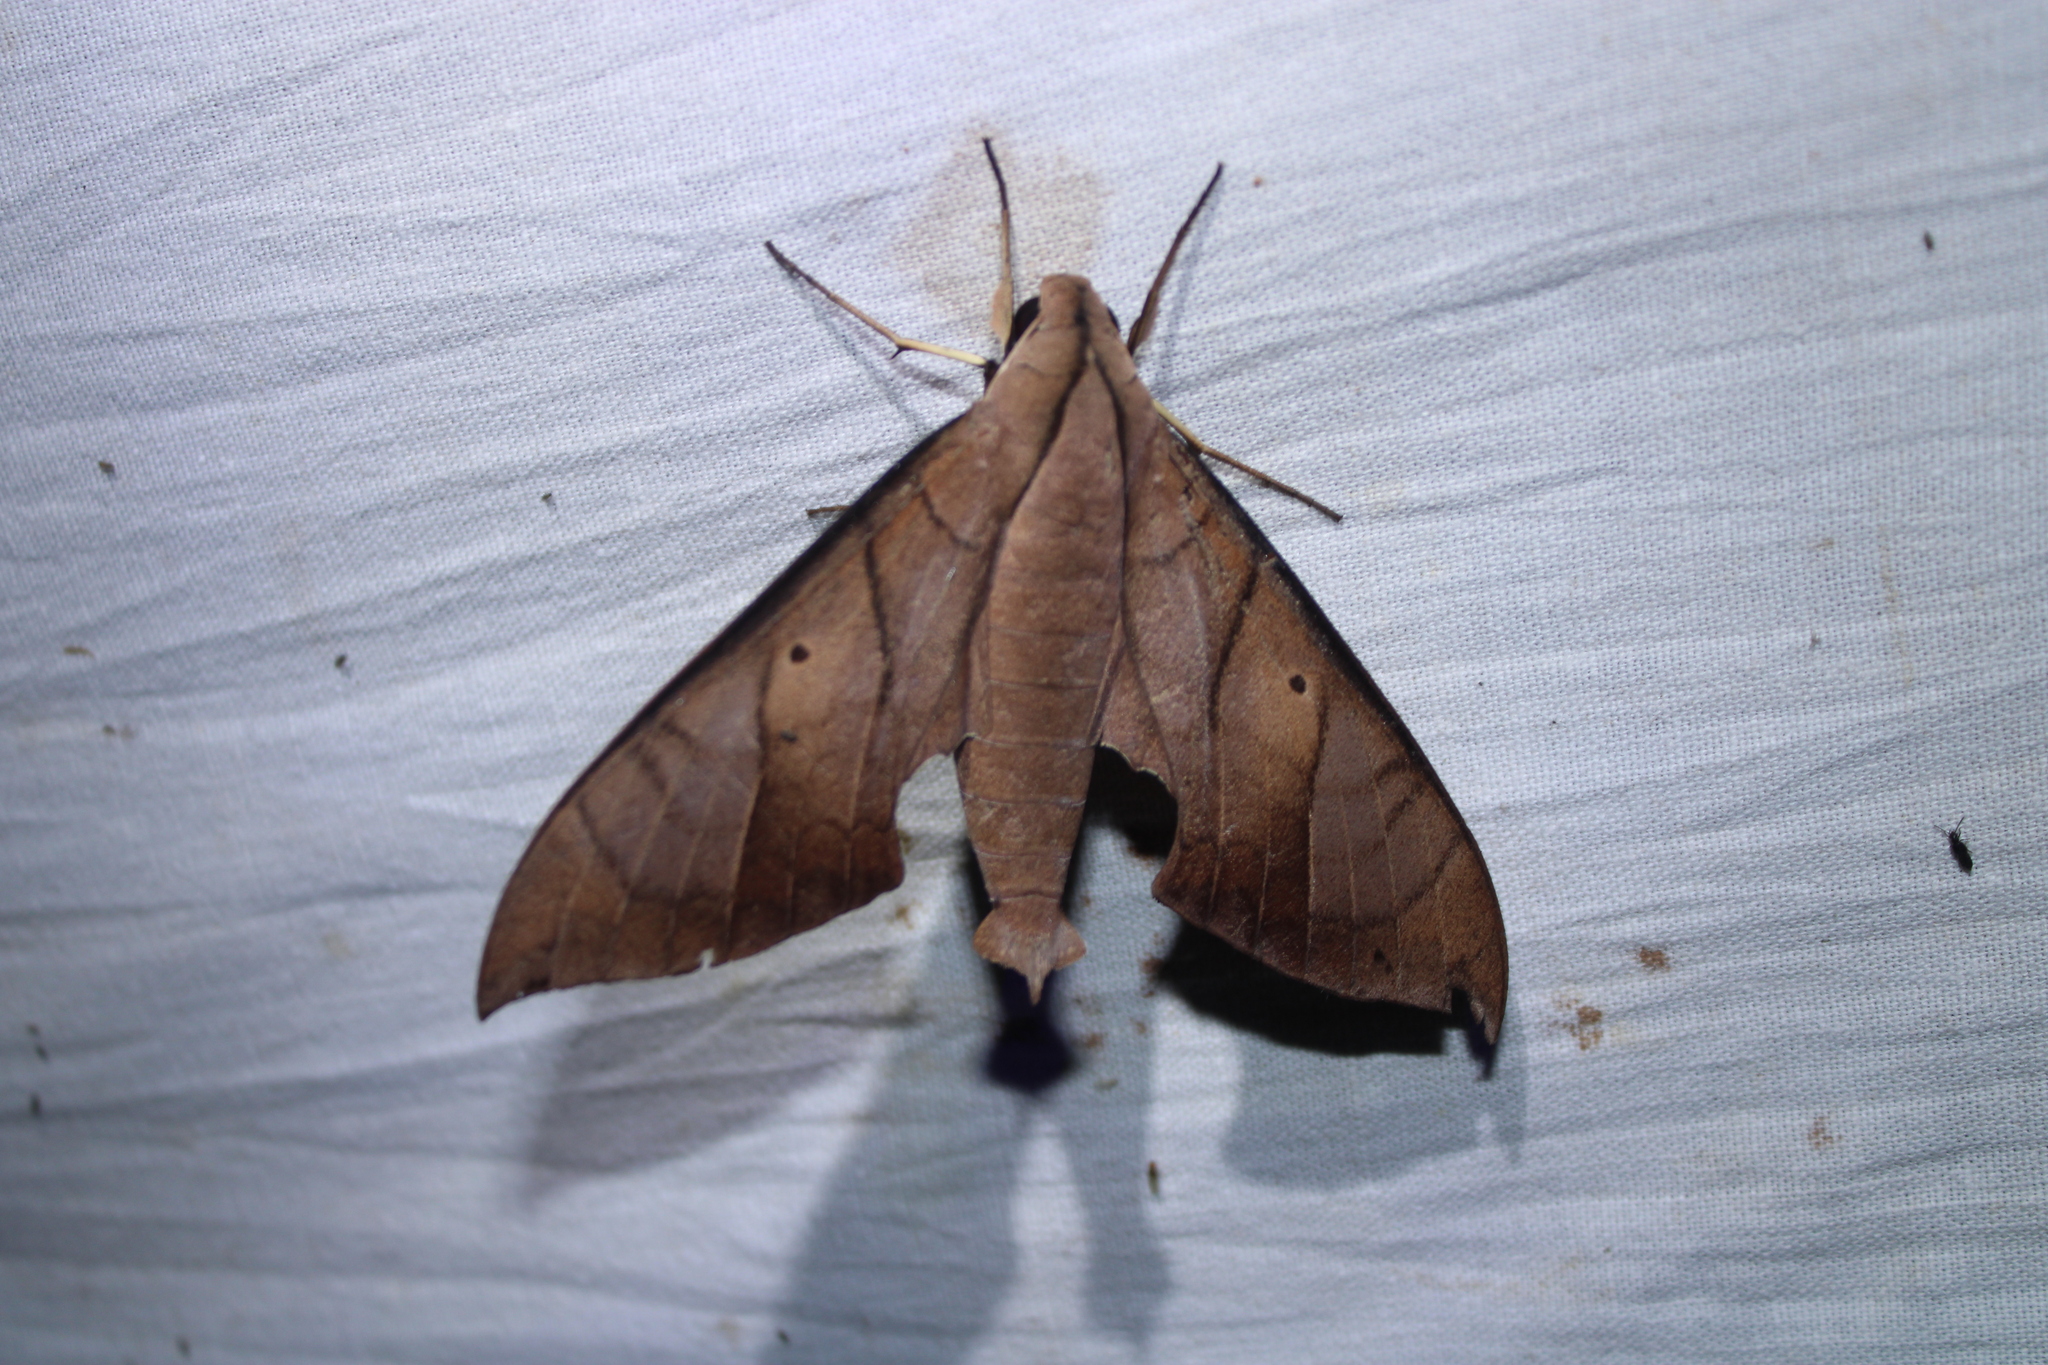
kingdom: Animalia
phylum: Arthropoda
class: Insecta
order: Lepidoptera
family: Sphingidae
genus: Pachylia
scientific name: Pachylia darceta
